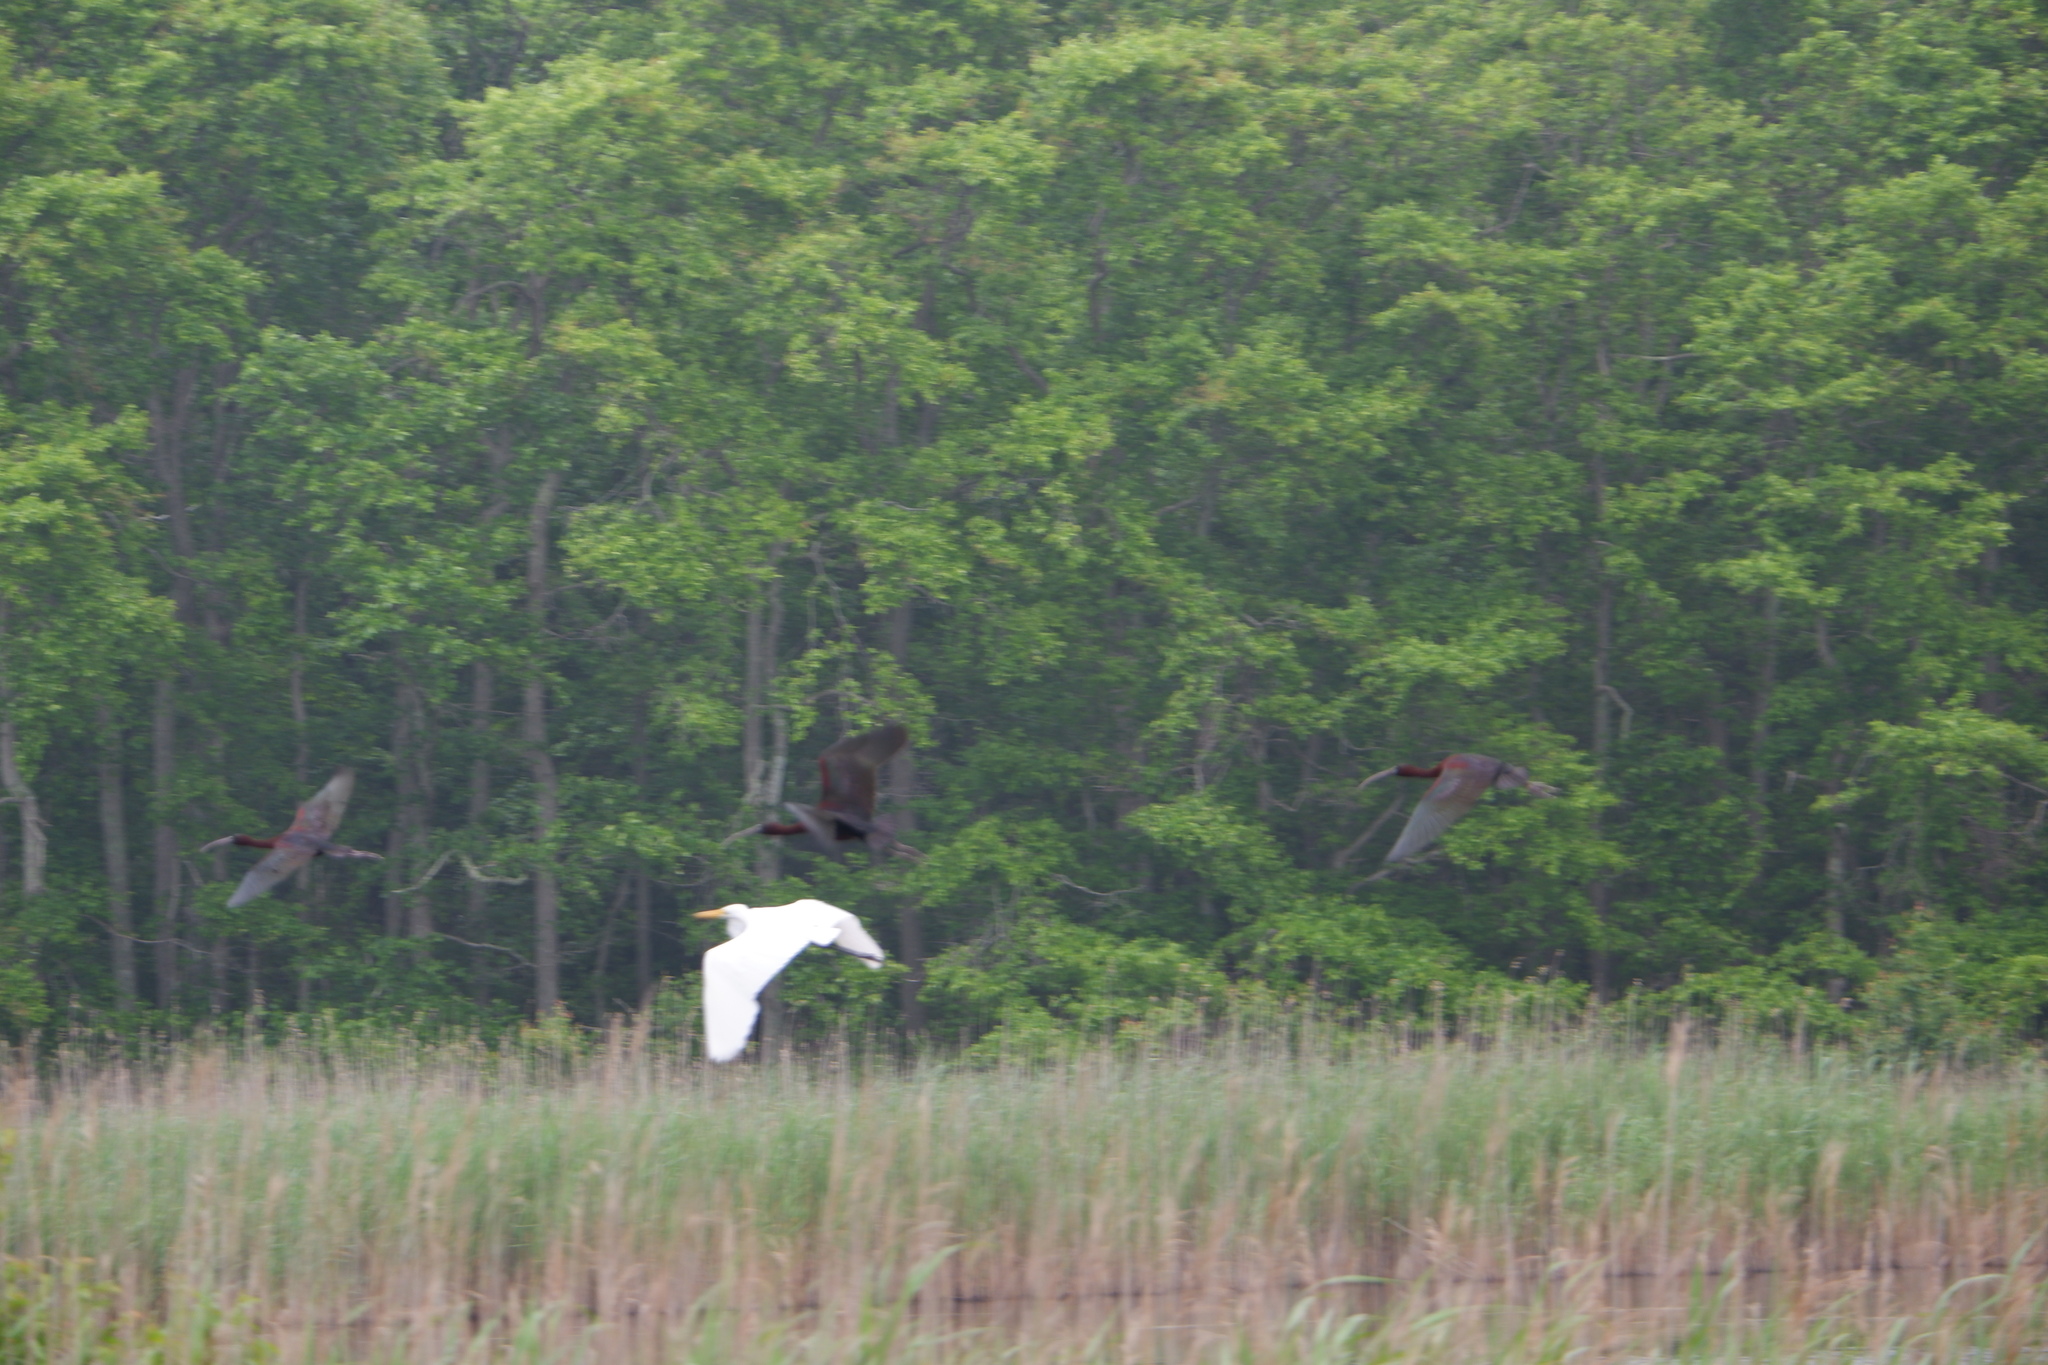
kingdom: Animalia
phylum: Chordata
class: Aves
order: Pelecaniformes
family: Ardeidae
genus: Ardea
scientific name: Ardea alba
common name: Great egret
